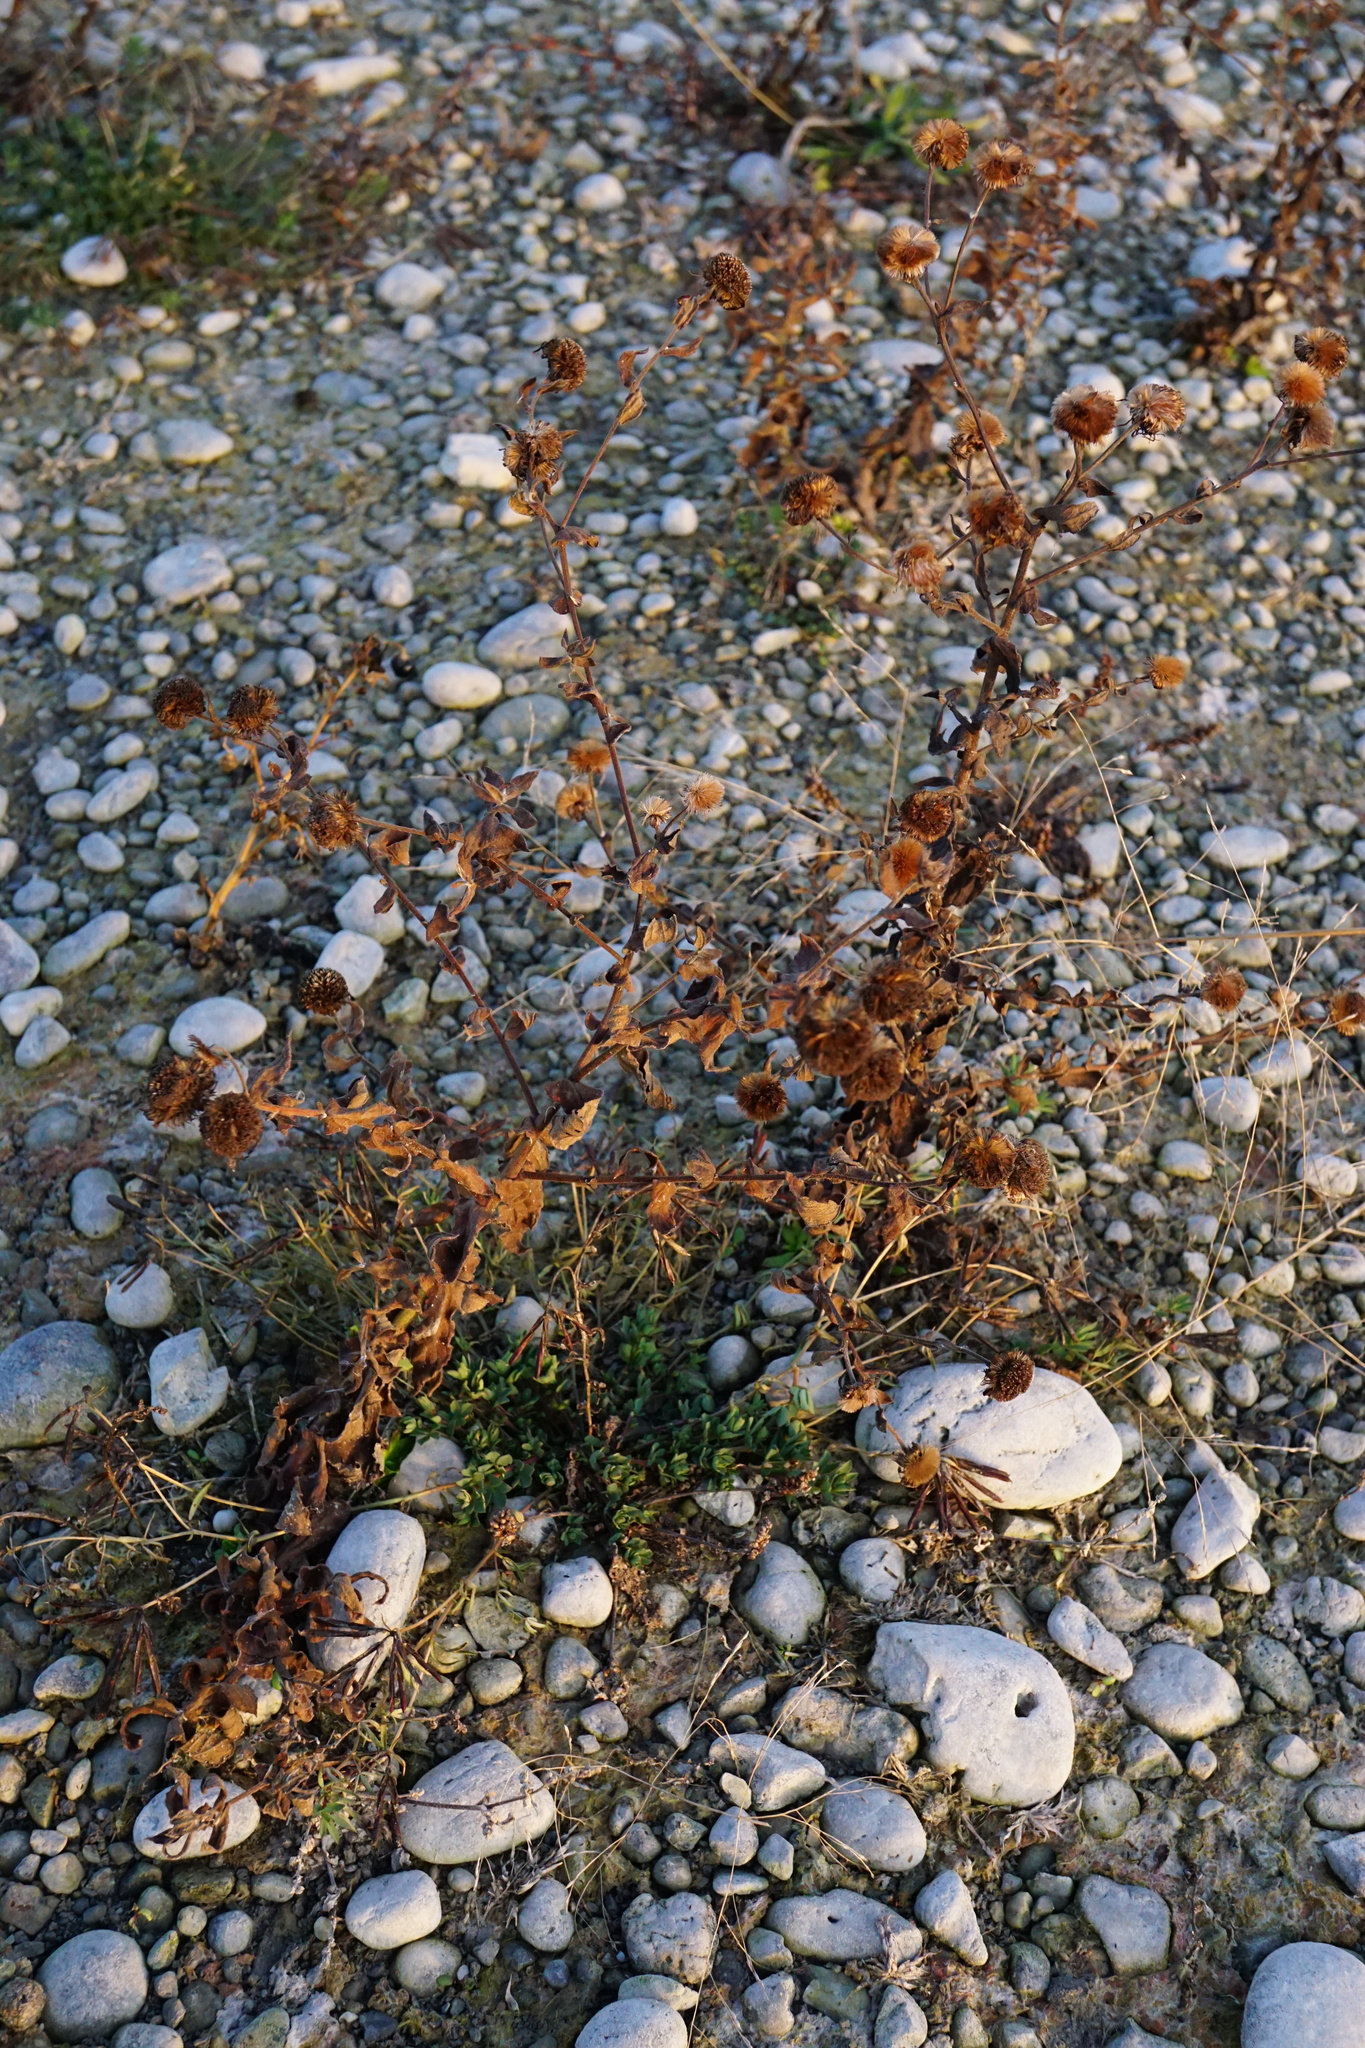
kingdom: Plantae
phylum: Tracheophyta
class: Magnoliopsida
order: Asterales
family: Asteraceae
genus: Pulicaria
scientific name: Pulicaria dysenterica
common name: Common fleabane
